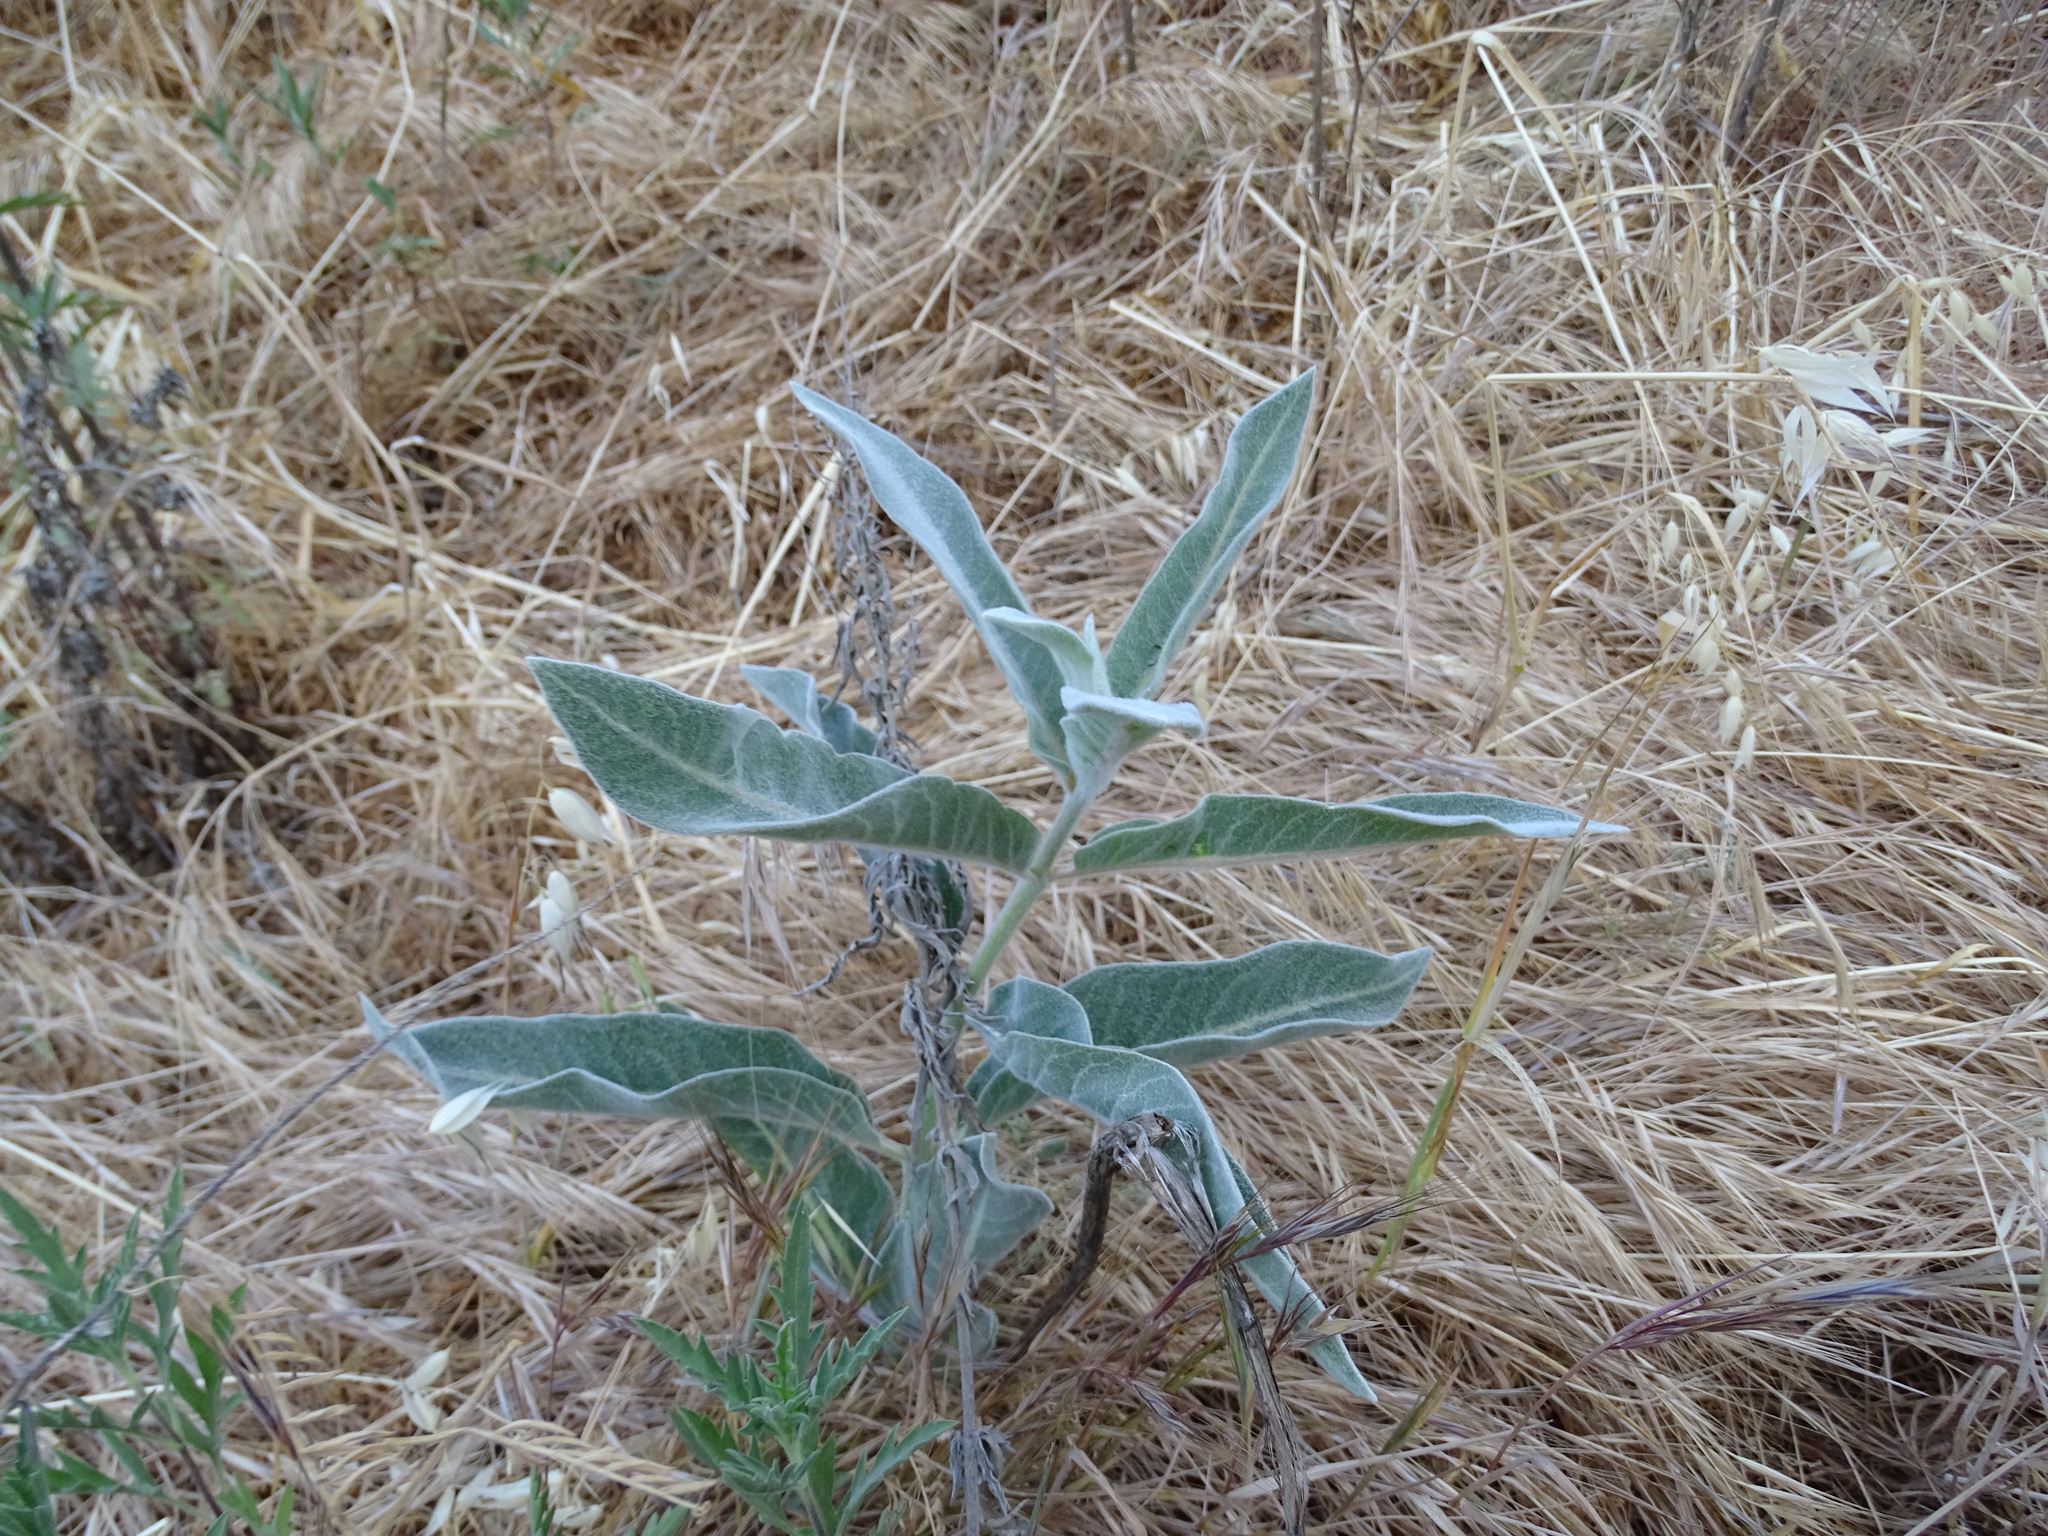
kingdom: Plantae
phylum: Tracheophyta
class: Magnoliopsida
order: Gentianales
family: Apocynaceae
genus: Asclepias
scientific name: Asclepias eriocarpa
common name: Indian milkweed
